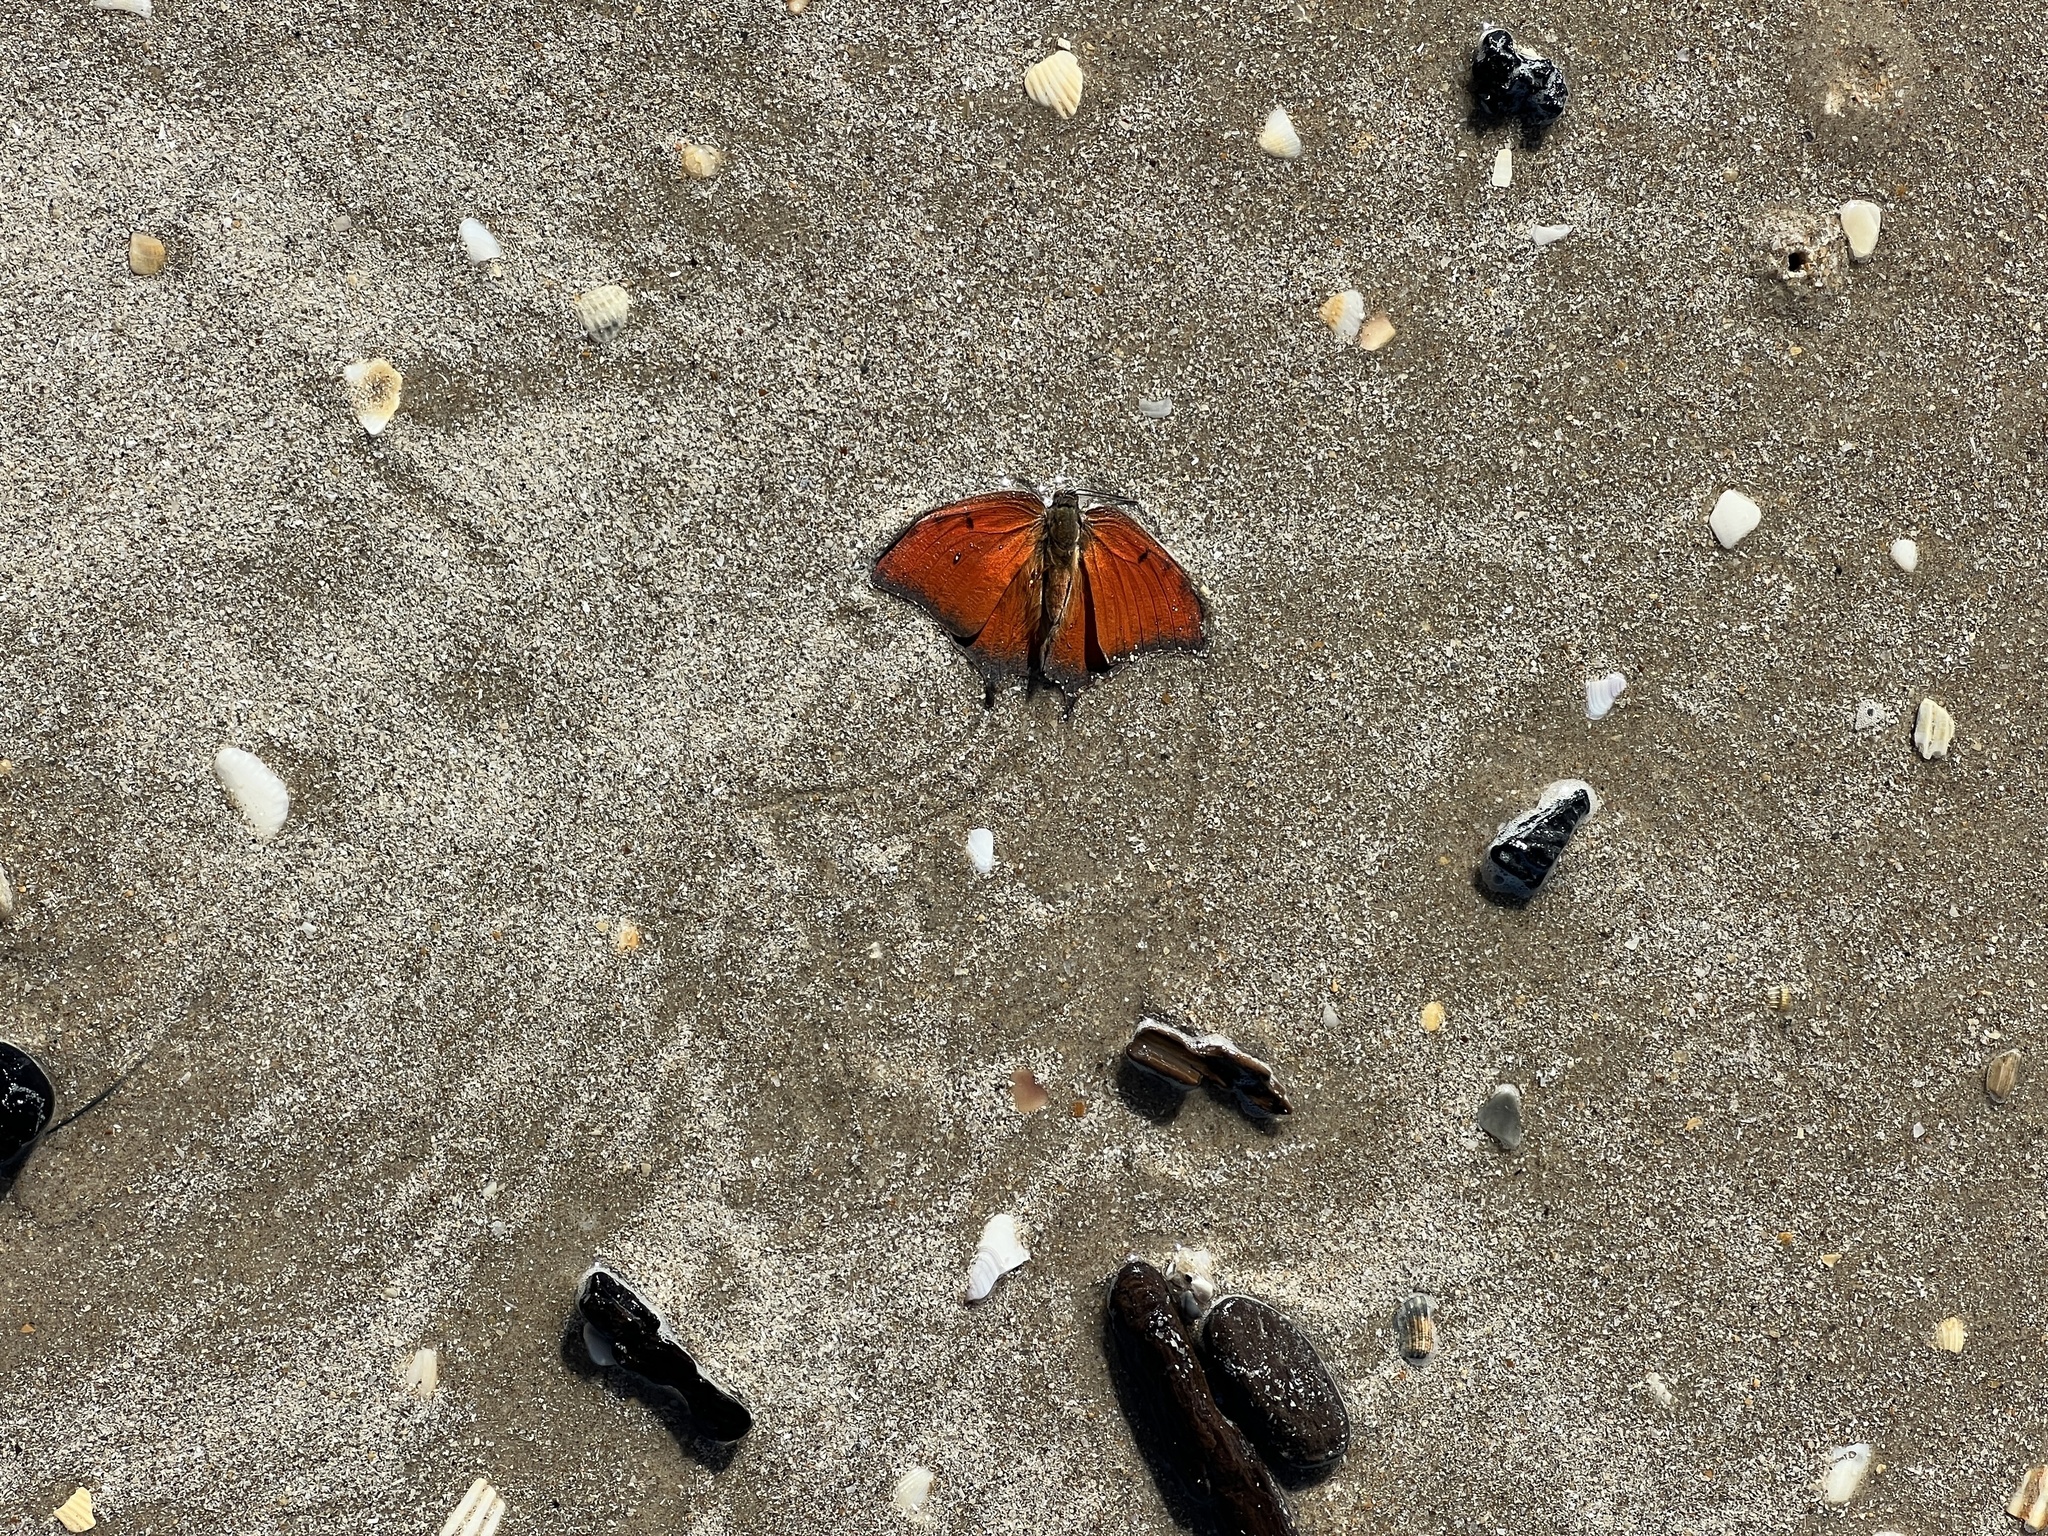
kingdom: Animalia
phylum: Arthropoda
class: Insecta
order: Lepidoptera
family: Nymphalidae
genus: Anaea
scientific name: Anaea andria
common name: Goatweed leafwing
